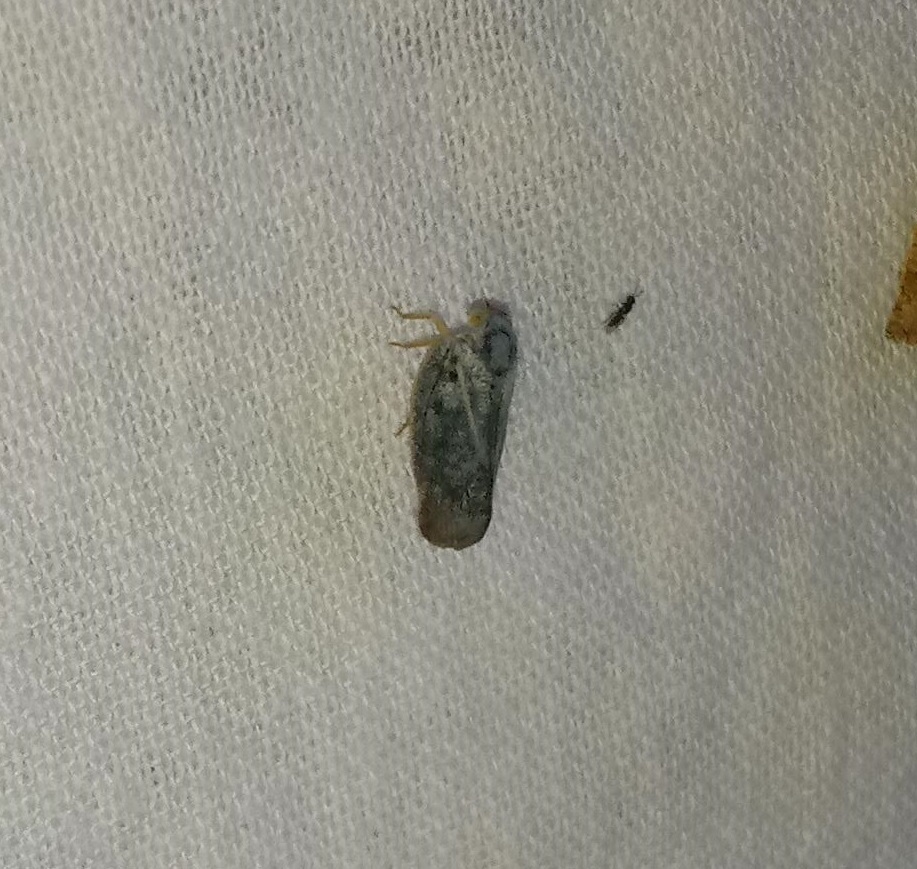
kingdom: Animalia
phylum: Arthropoda
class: Insecta
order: Hemiptera
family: Flatidae
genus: Metcalfa
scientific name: Metcalfa pruinosa
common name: Citrus flatid planthopper
